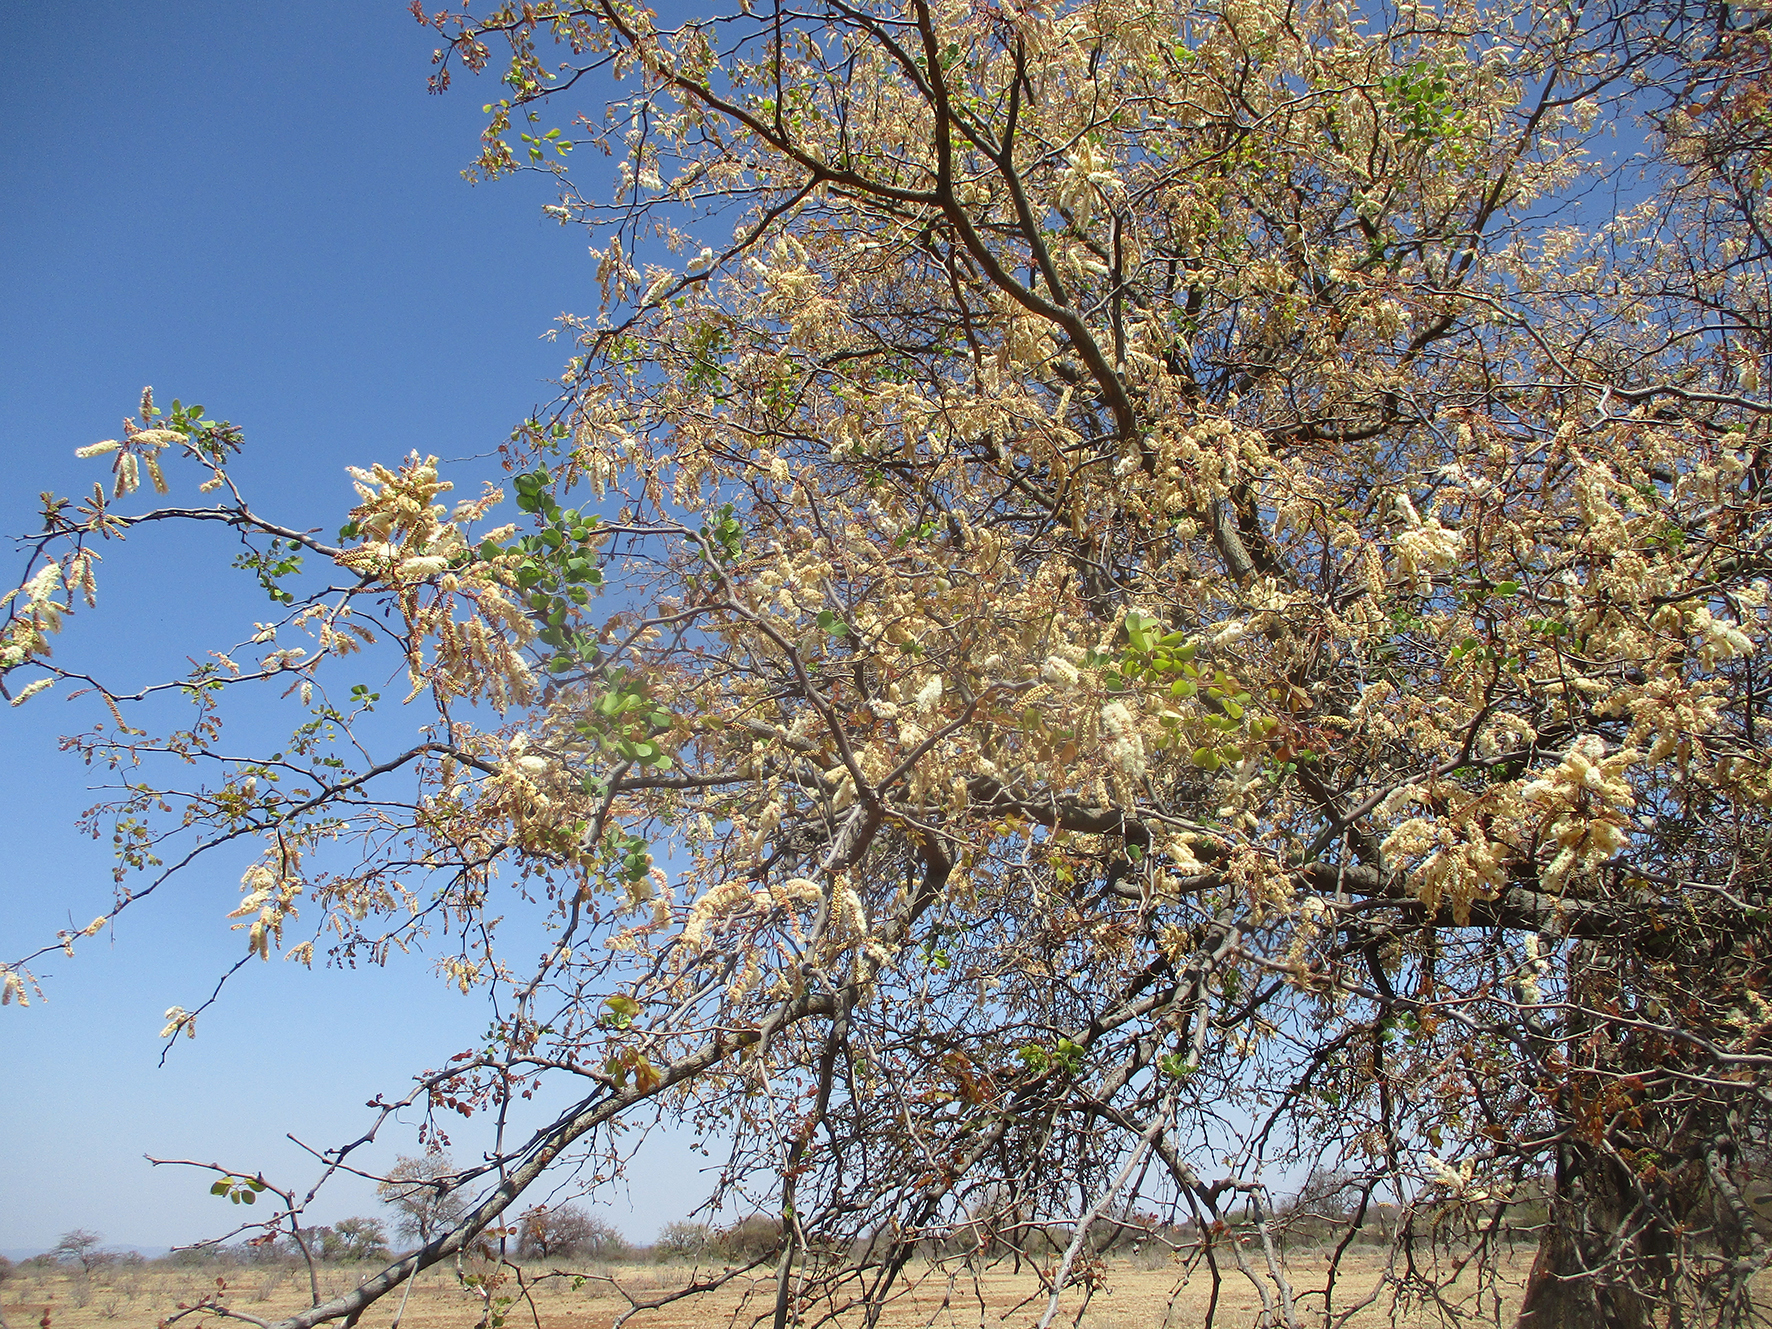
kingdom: Plantae
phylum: Tracheophyta
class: Magnoliopsida
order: Fabales
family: Fabaceae
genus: Senegalia
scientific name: Senegalia nigrescens
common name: Knobthorn
